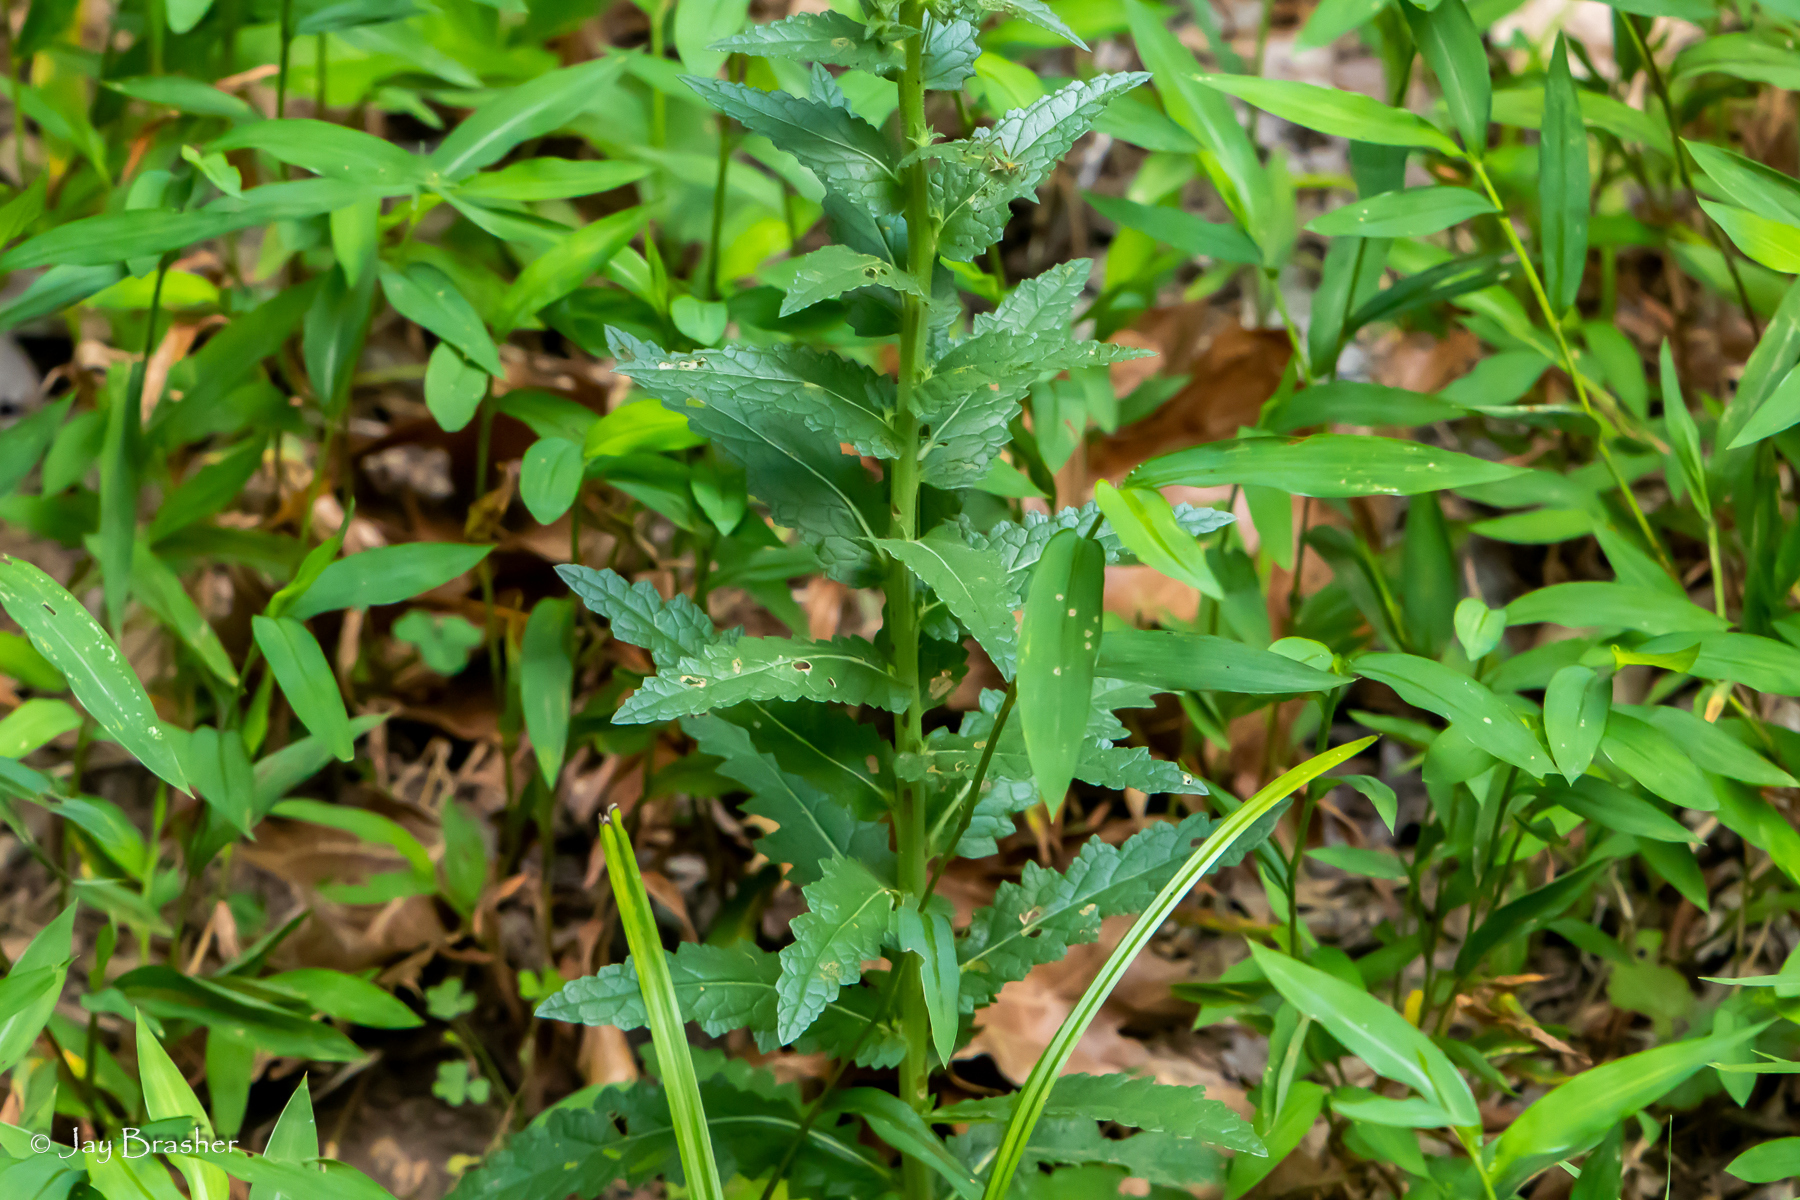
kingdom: Plantae
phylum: Tracheophyta
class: Magnoliopsida
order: Lamiales
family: Scrophulariaceae
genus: Verbascum
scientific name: Verbascum blattaria
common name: Moth mullein
